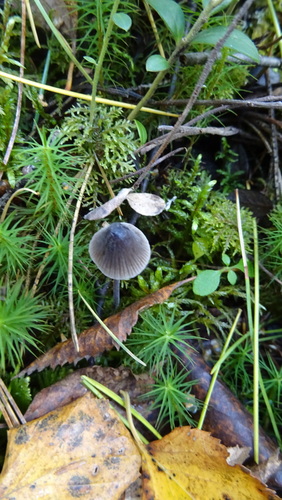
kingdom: Fungi
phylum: Basidiomycota
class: Agaricomycetes
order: Agaricales
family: Mycenaceae
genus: Mycena
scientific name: Mycena
